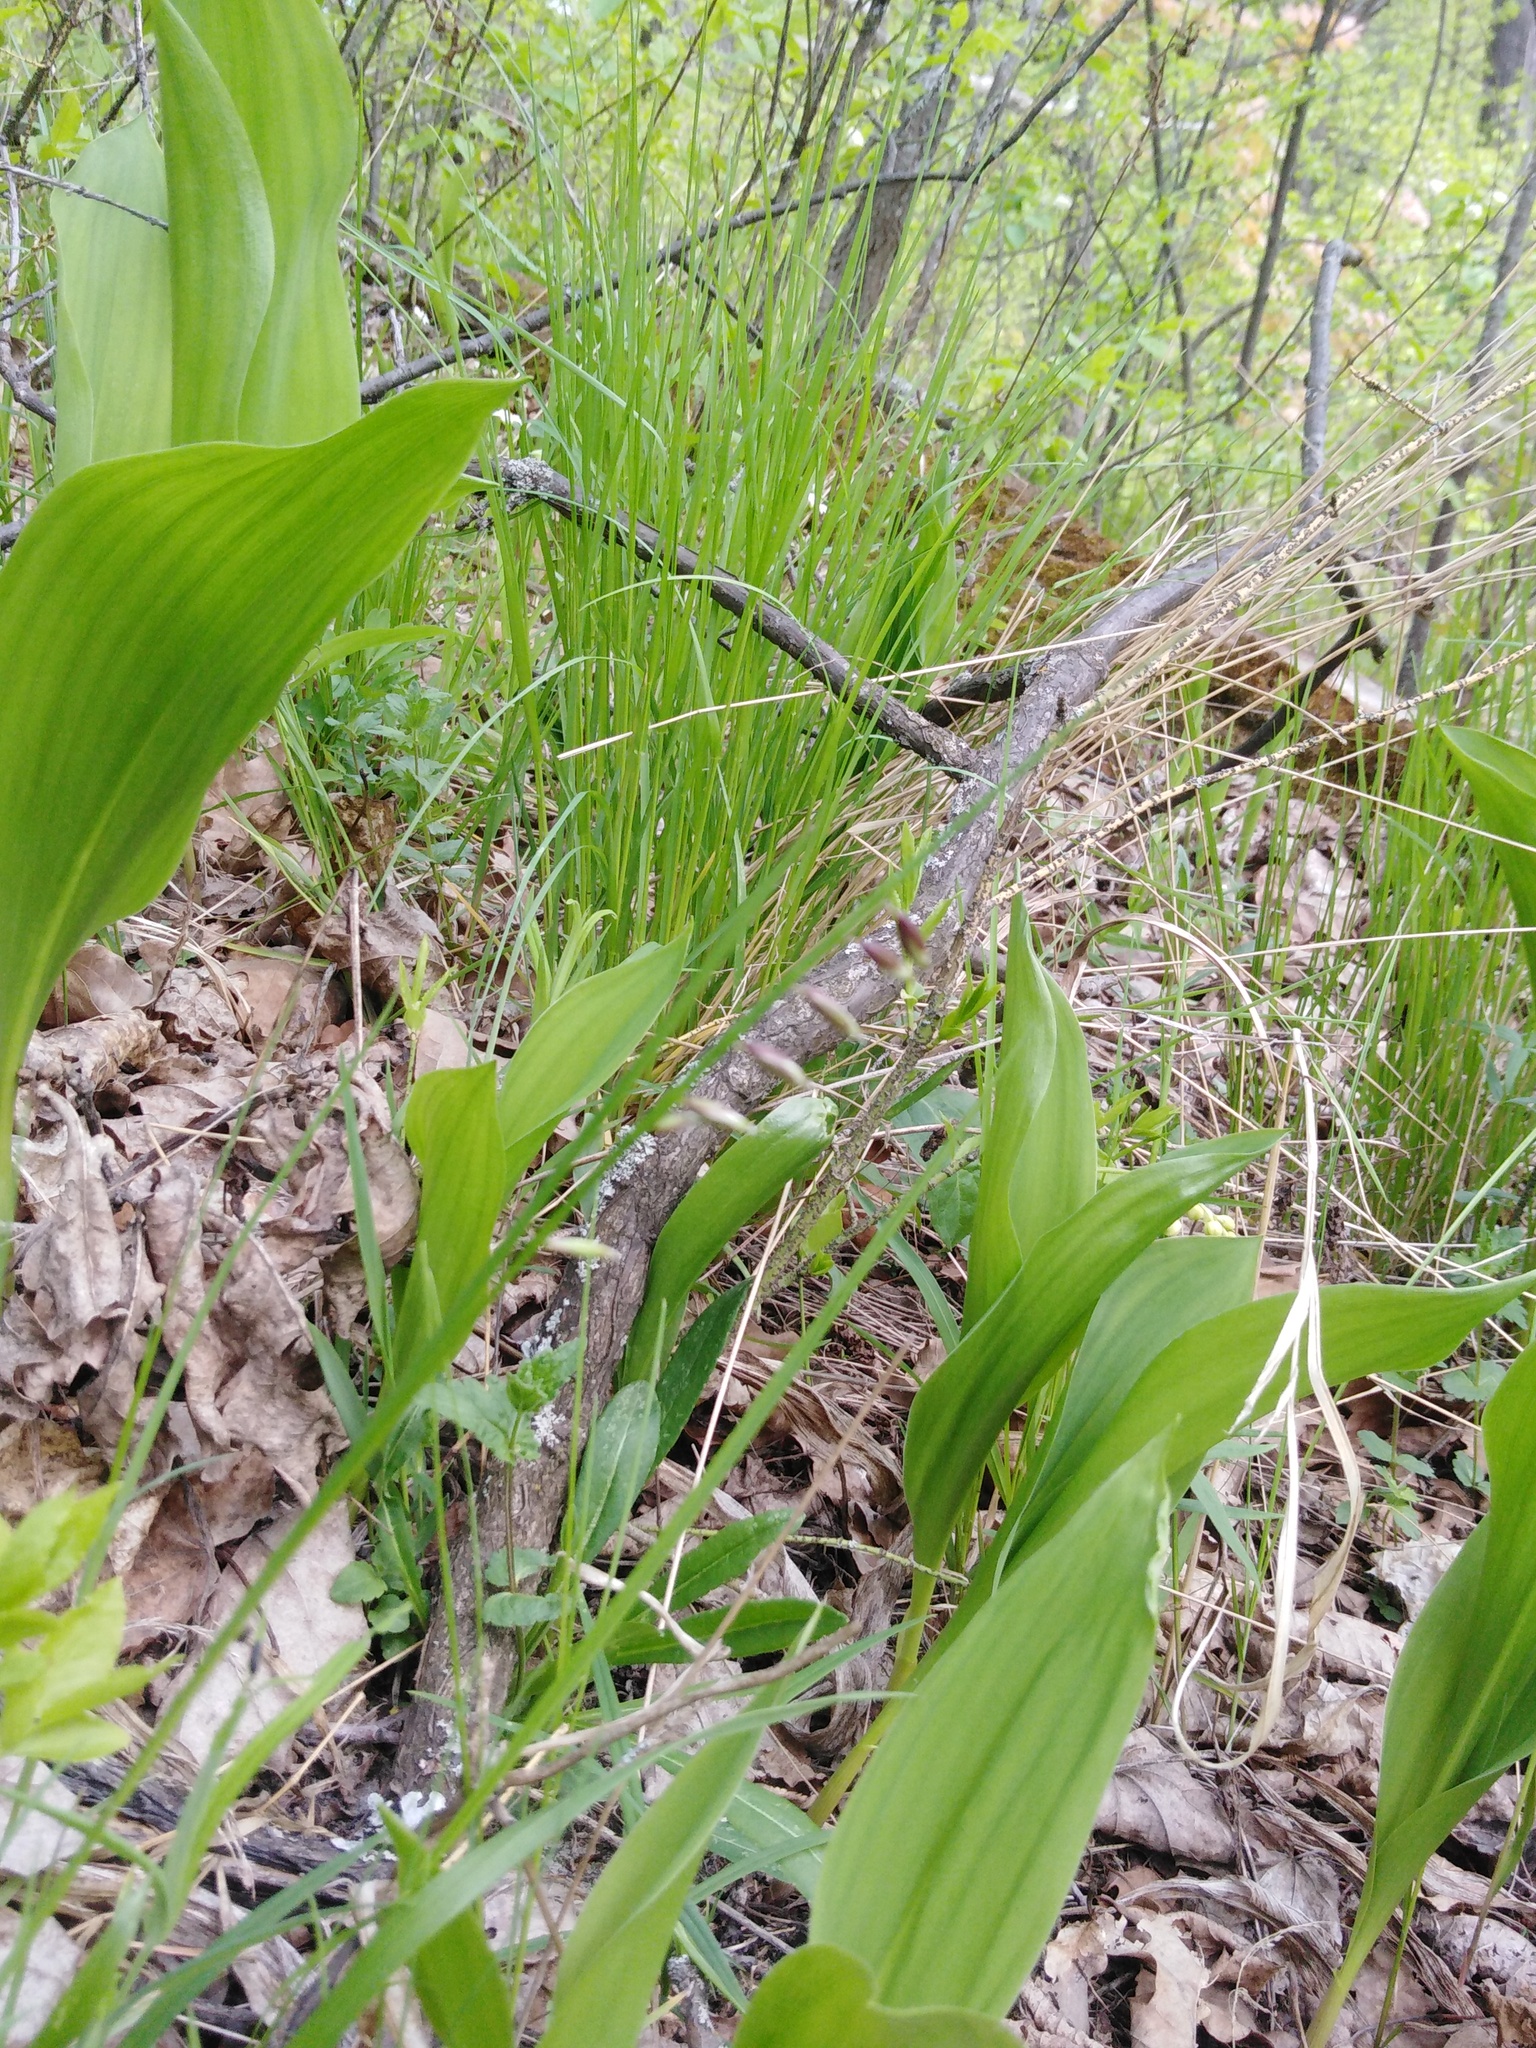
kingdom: Plantae
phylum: Tracheophyta
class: Liliopsida
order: Asparagales
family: Asparagaceae
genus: Convallaria
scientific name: Convallaria majalis
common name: Lily-of-the-valley
